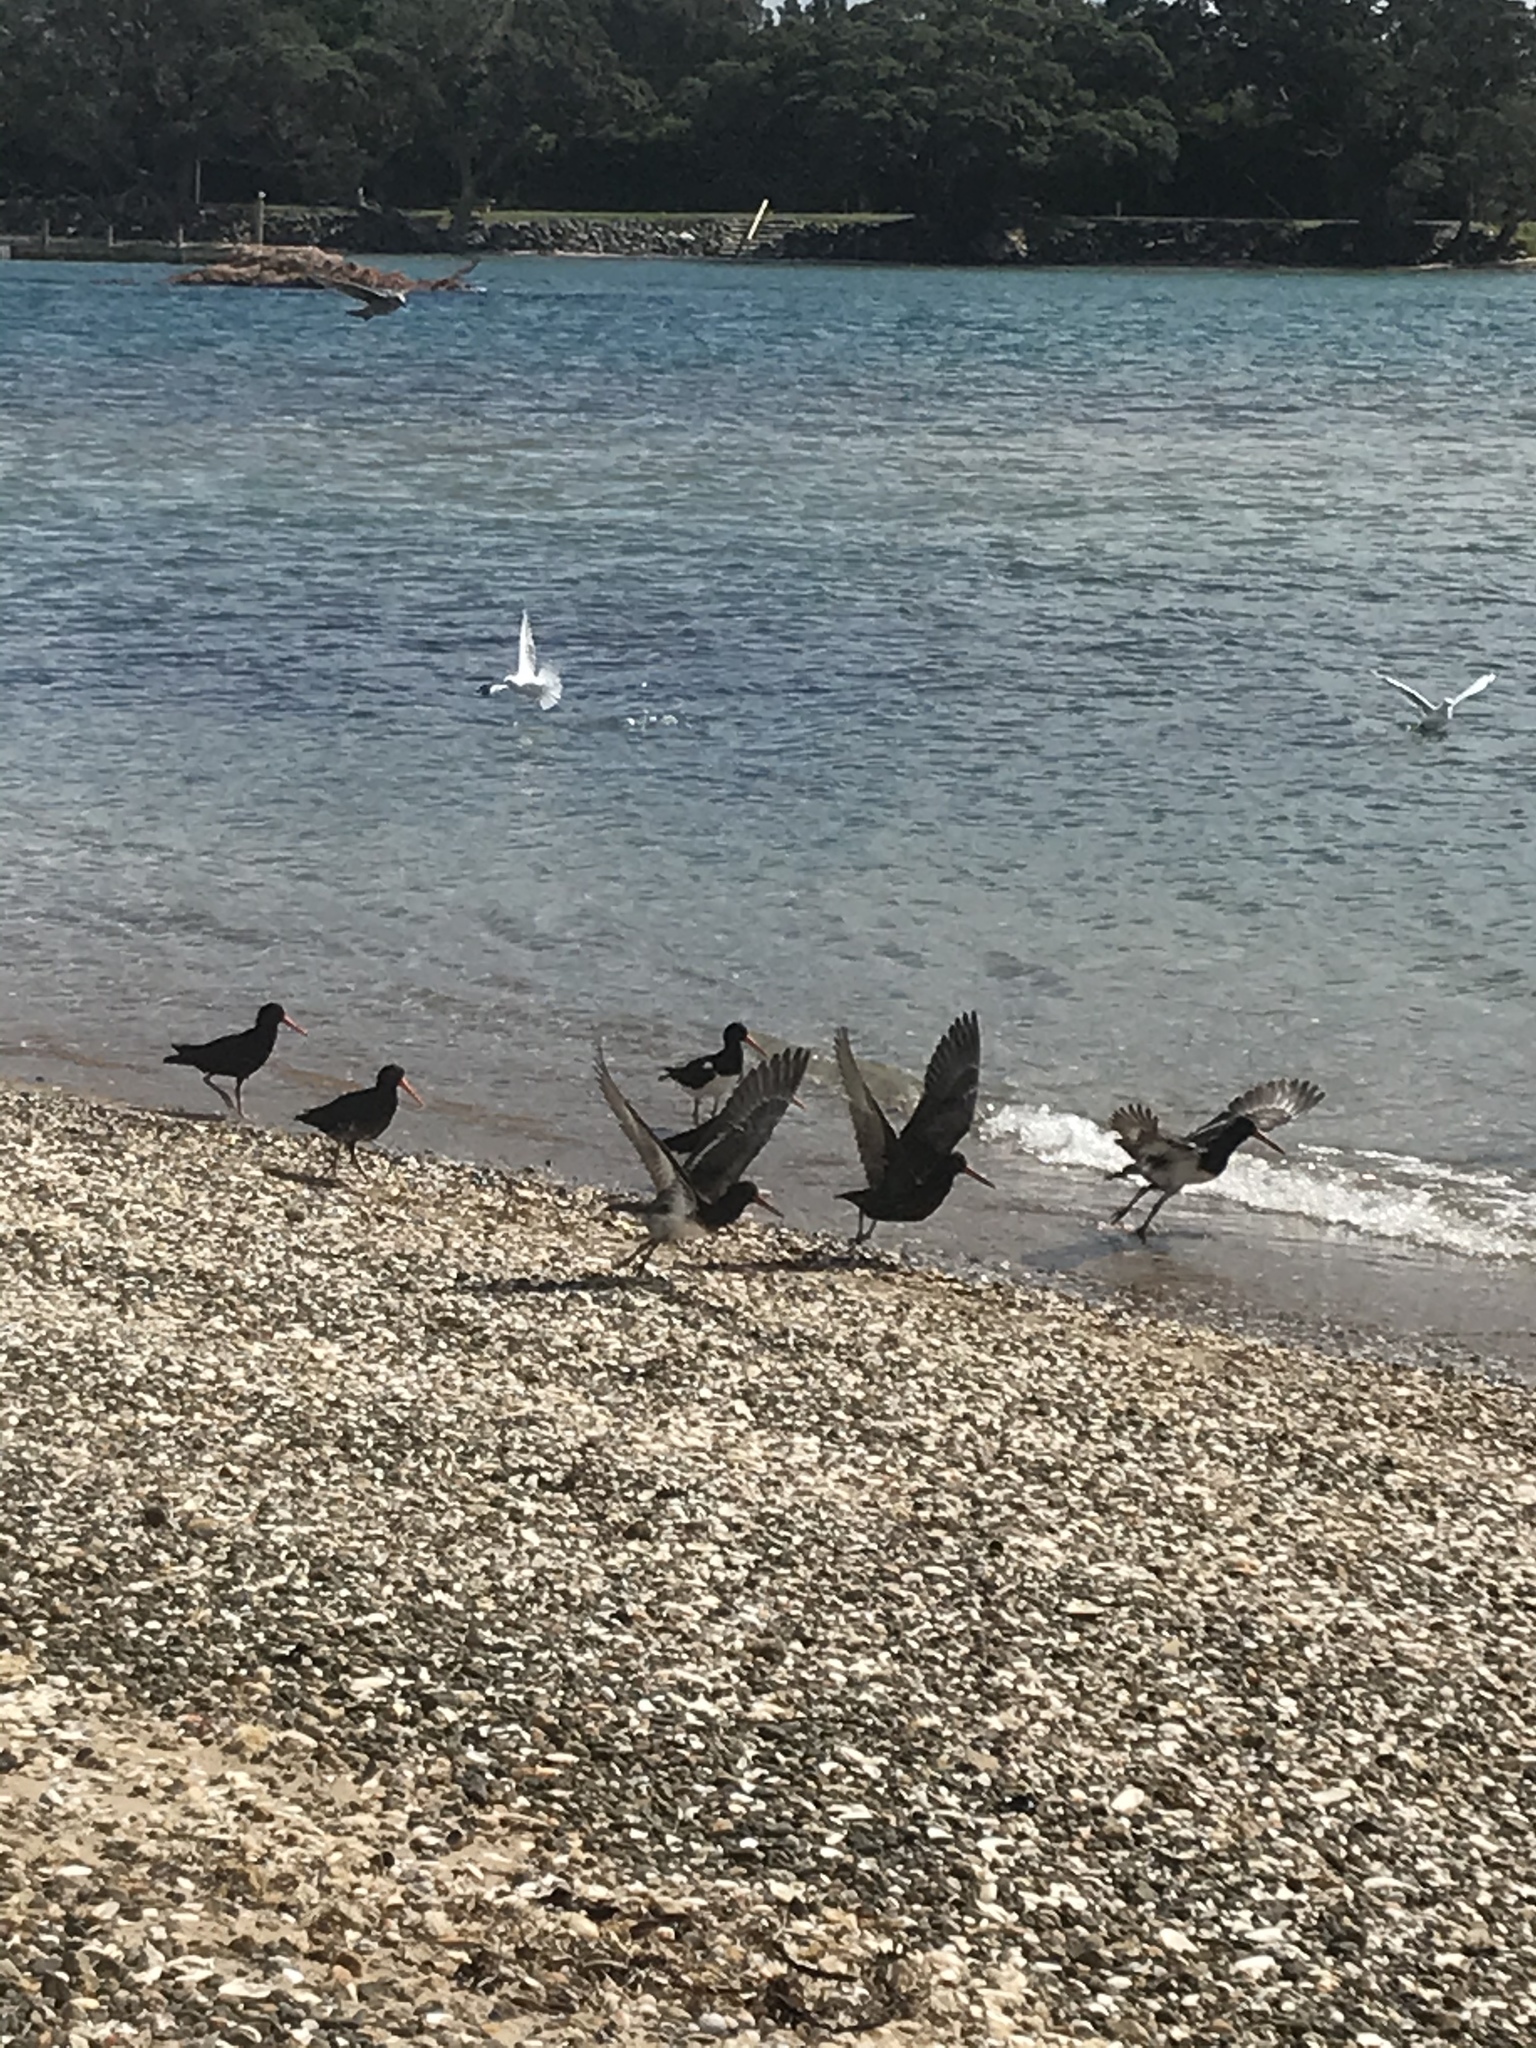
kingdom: Animalia
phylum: Chordata
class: Aves
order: Charadriiformes
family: Haematopodidae
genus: Haematopus
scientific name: Haematopus unicolor
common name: Variable oystercatcher
